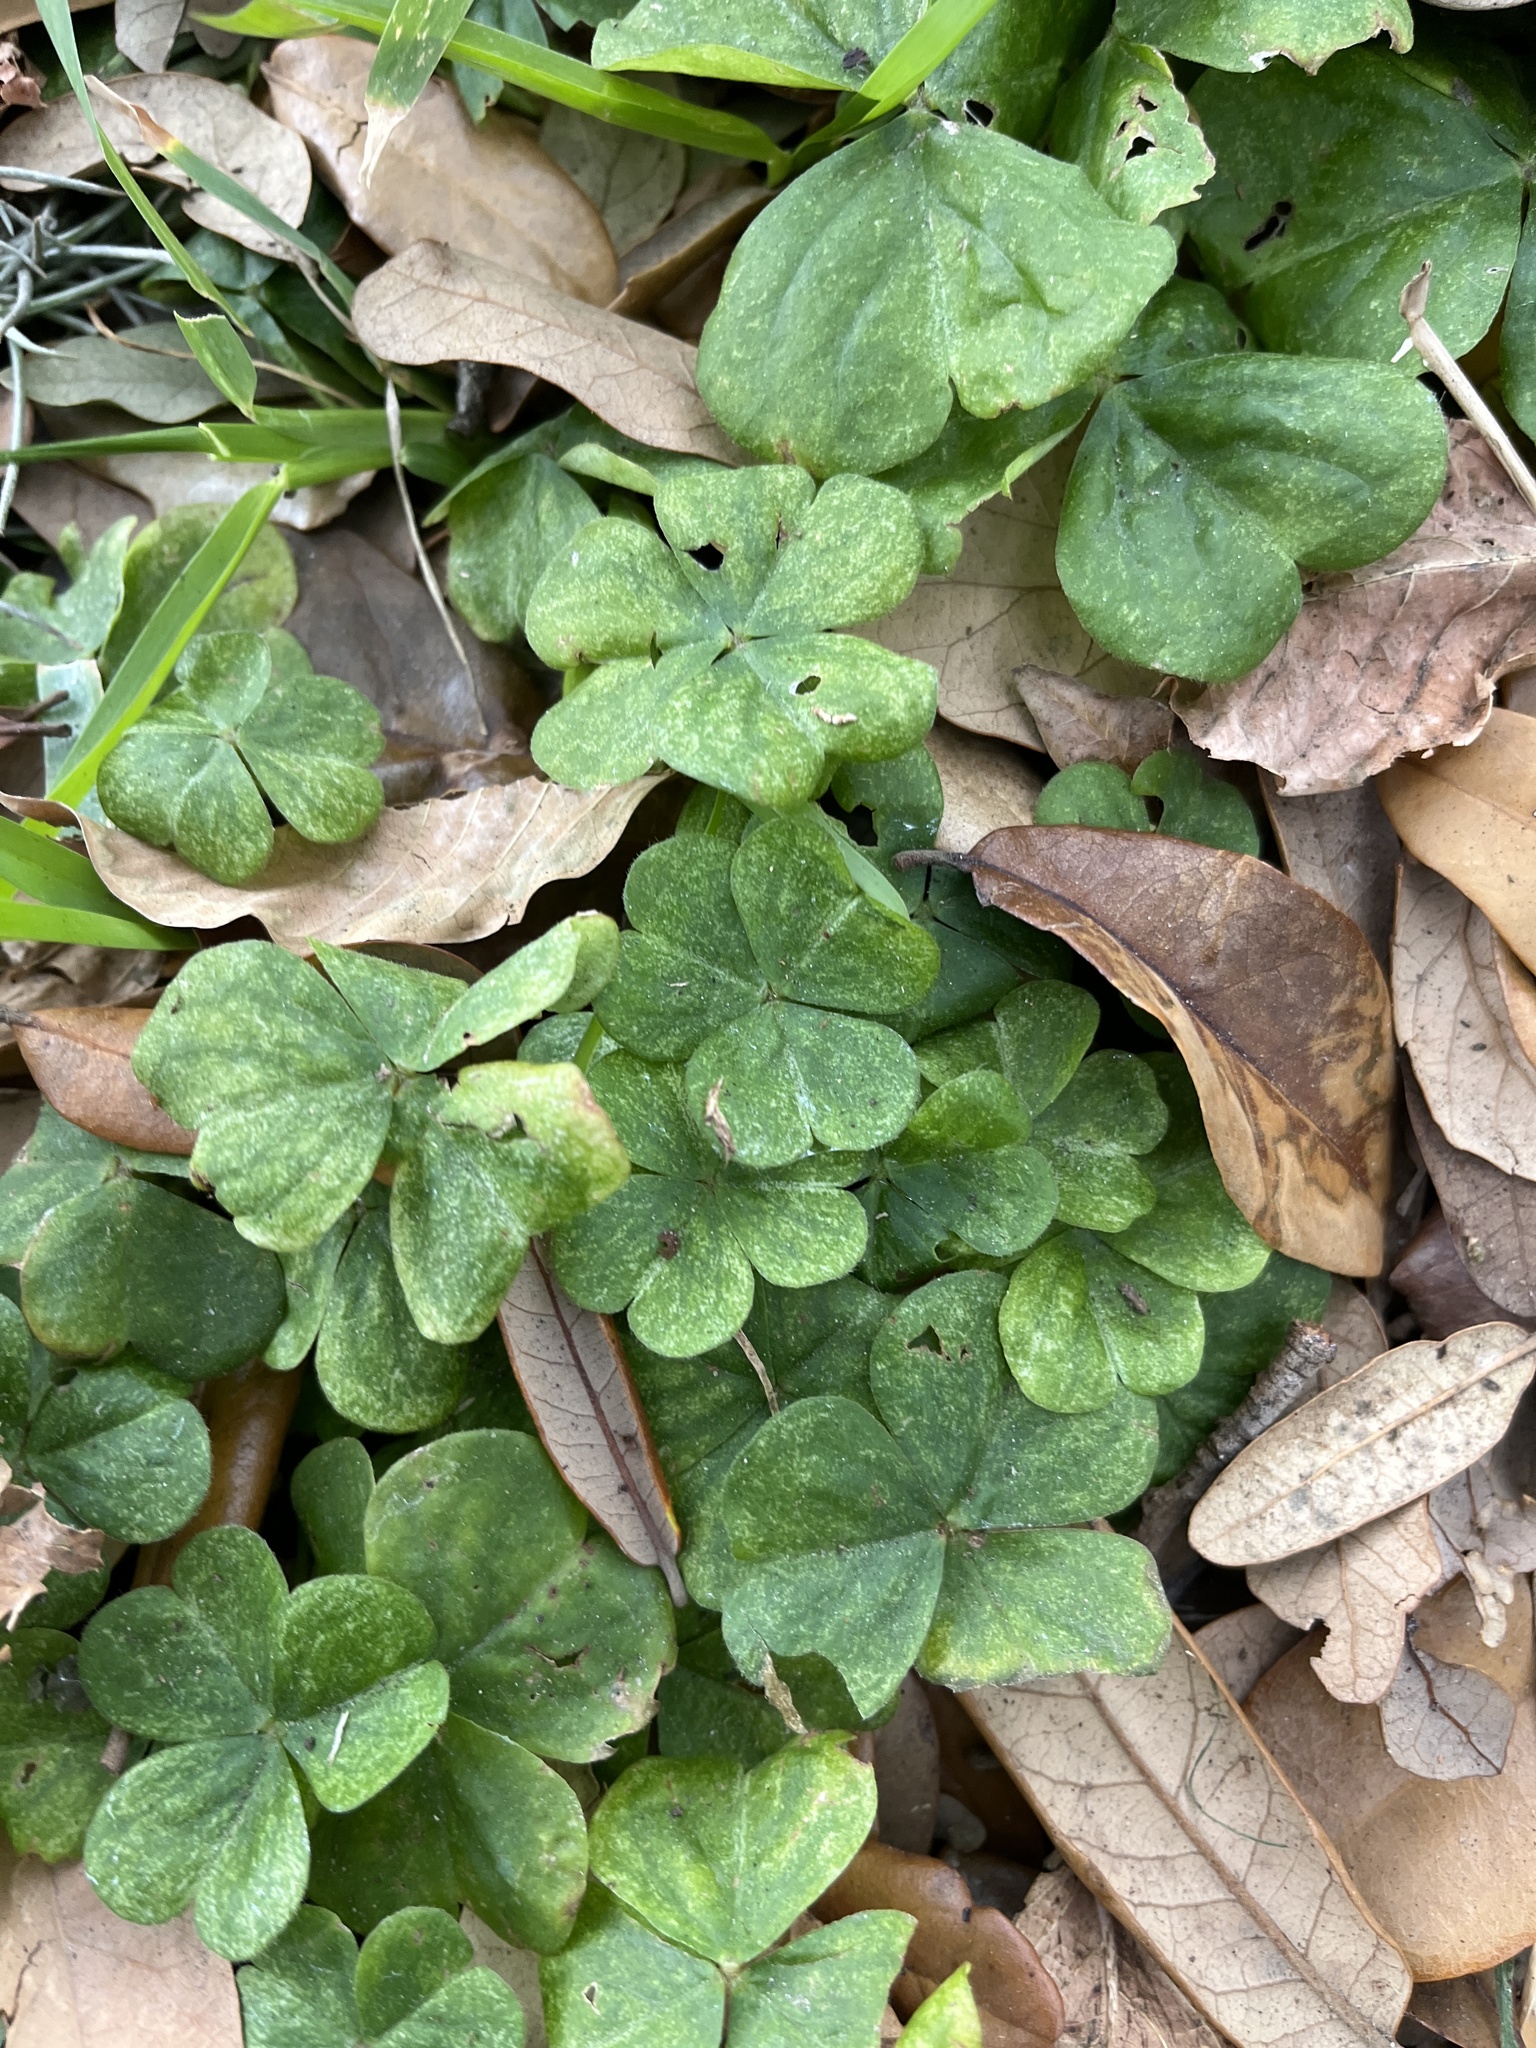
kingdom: Plantae
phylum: Tracheophyta
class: Magnoliopsida
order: Oxalidales
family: Oxalidaceae
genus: Oxalis
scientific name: Oxalis debilis
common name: Large-flowered pink-sorrel
